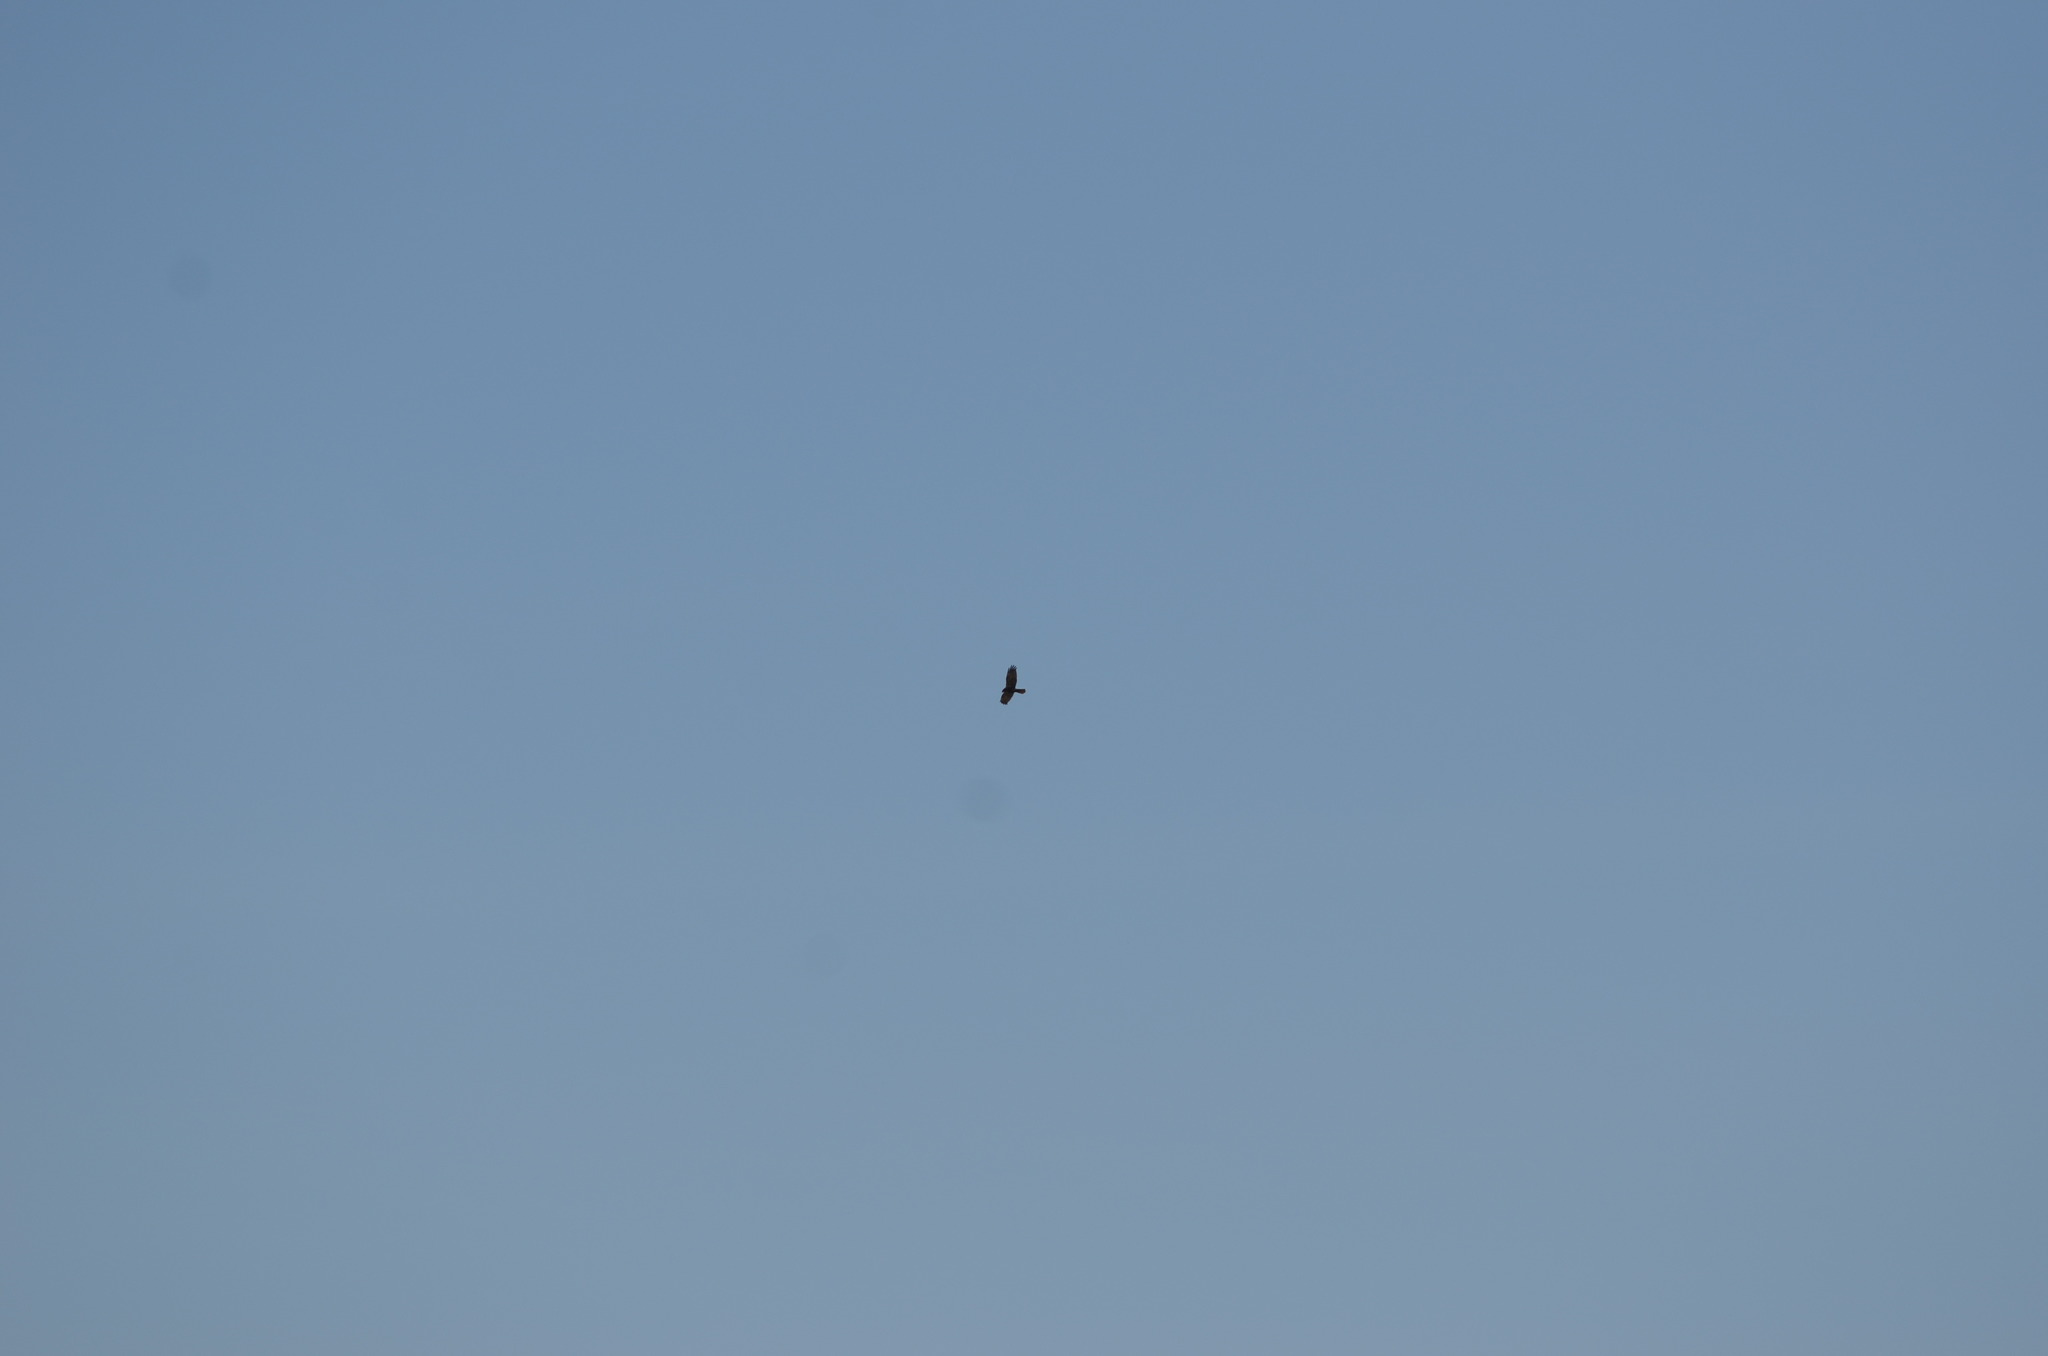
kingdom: Animalia
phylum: Chordata
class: Aves
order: Accipitriformes
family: Accipitridae
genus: Circus
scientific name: Circus aeruginosus
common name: Western marsh harrier
